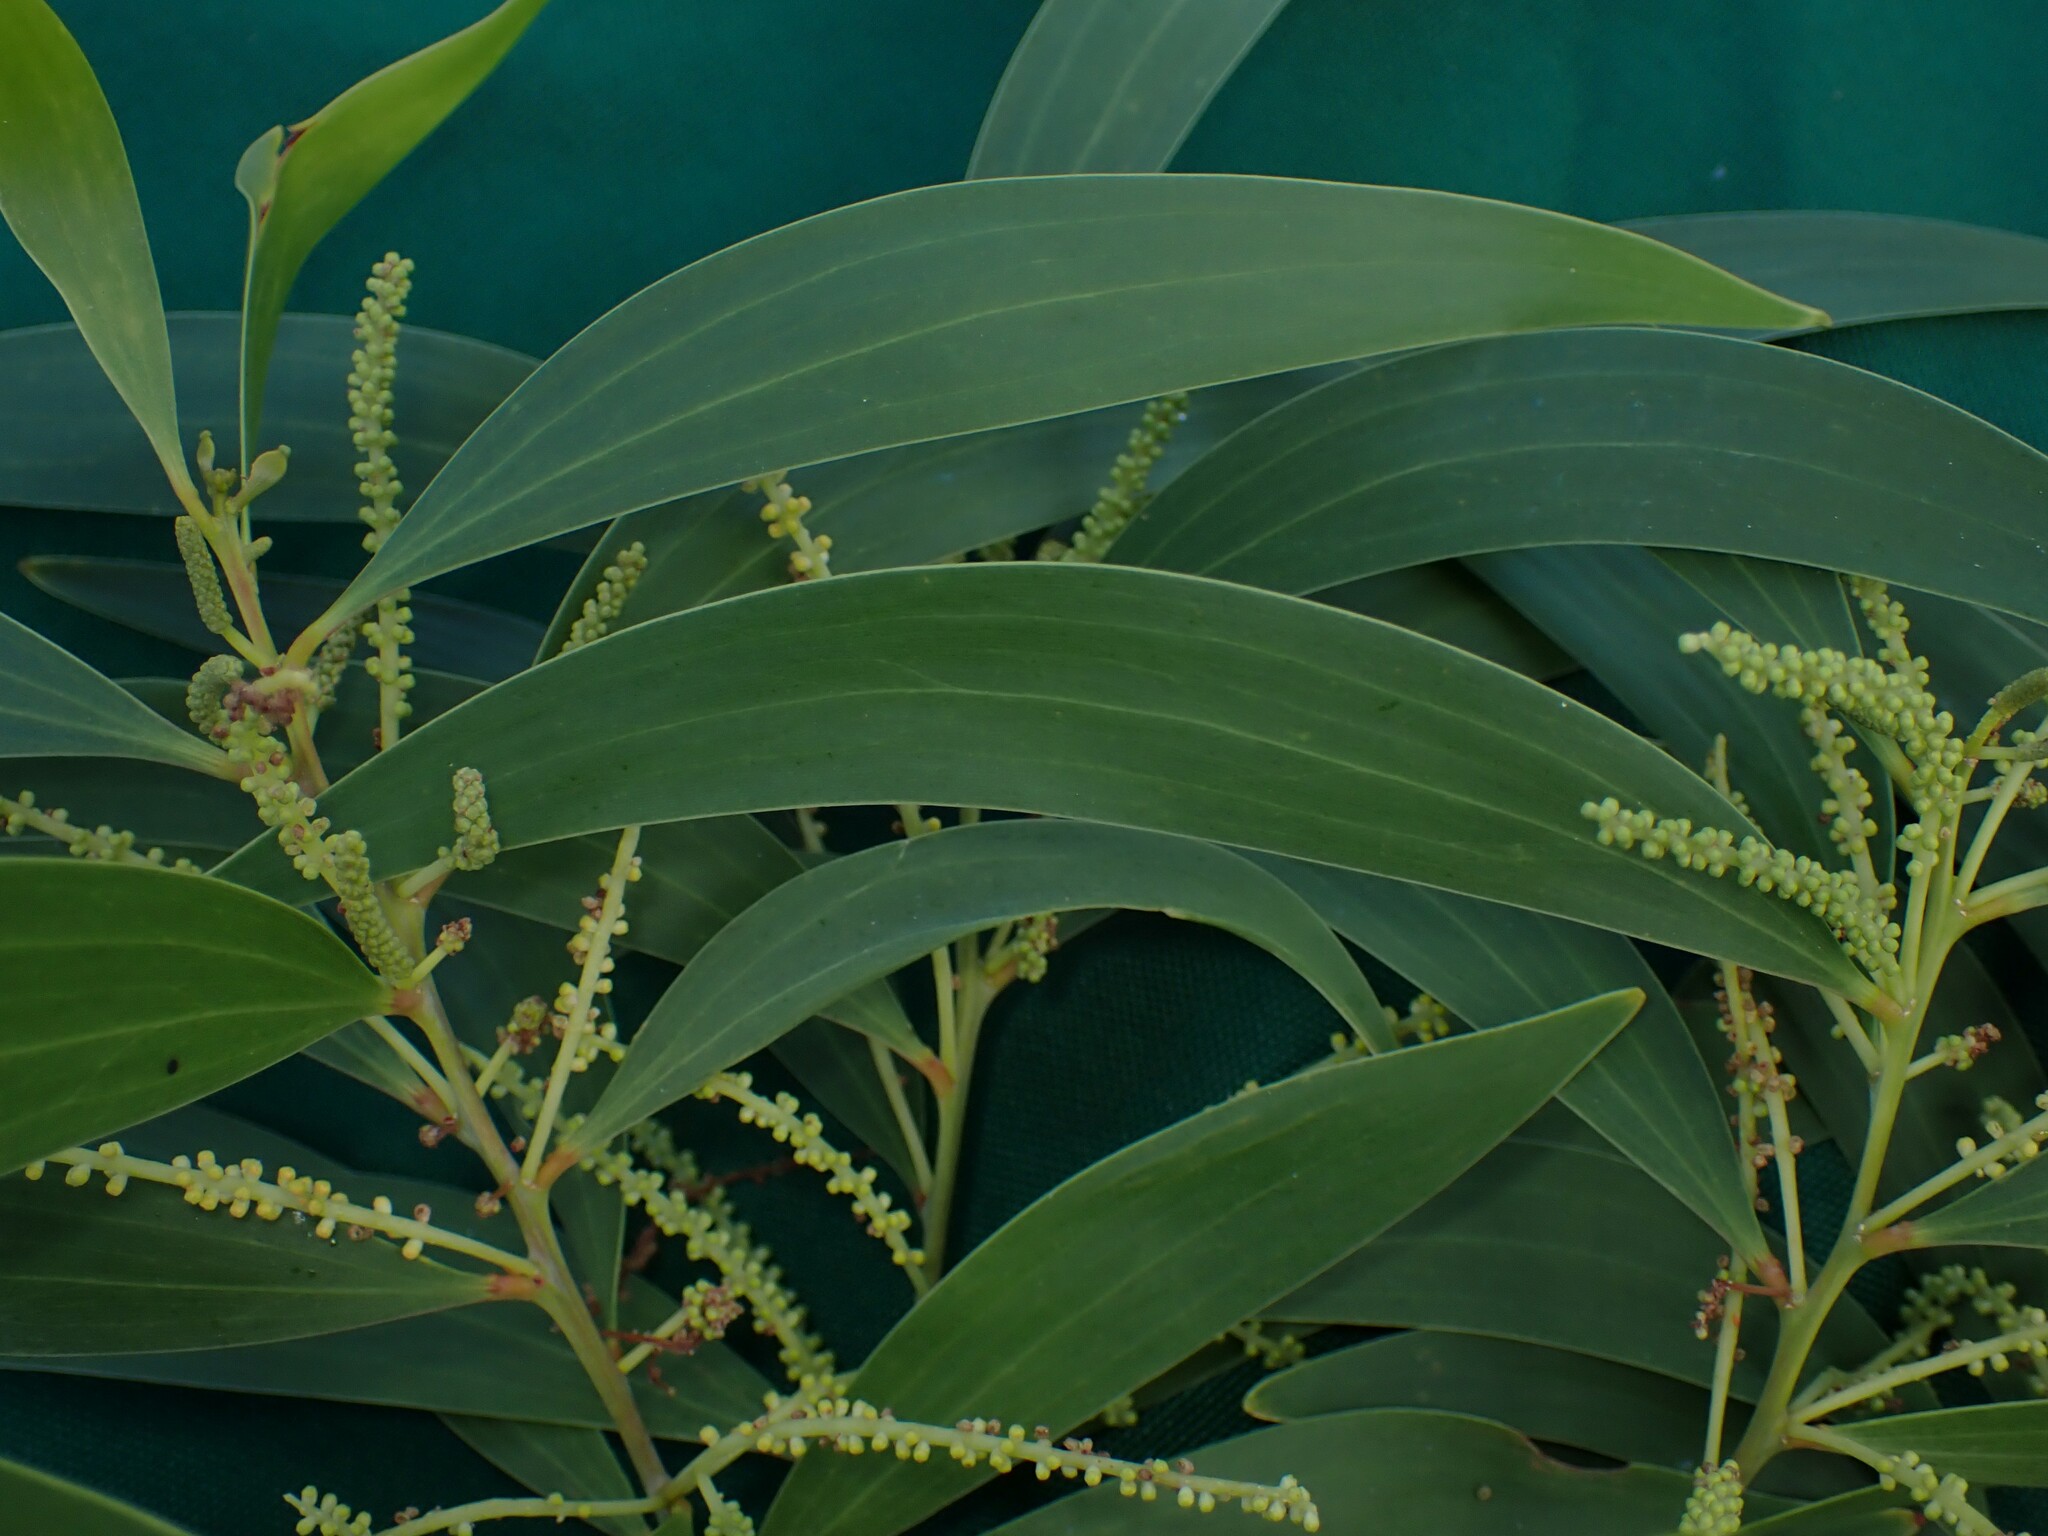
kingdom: Plantae
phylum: Tracheophyta
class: Magnoliopsida
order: Fabales
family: Fabaceae
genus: Acacia
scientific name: Acacia spirorbis
